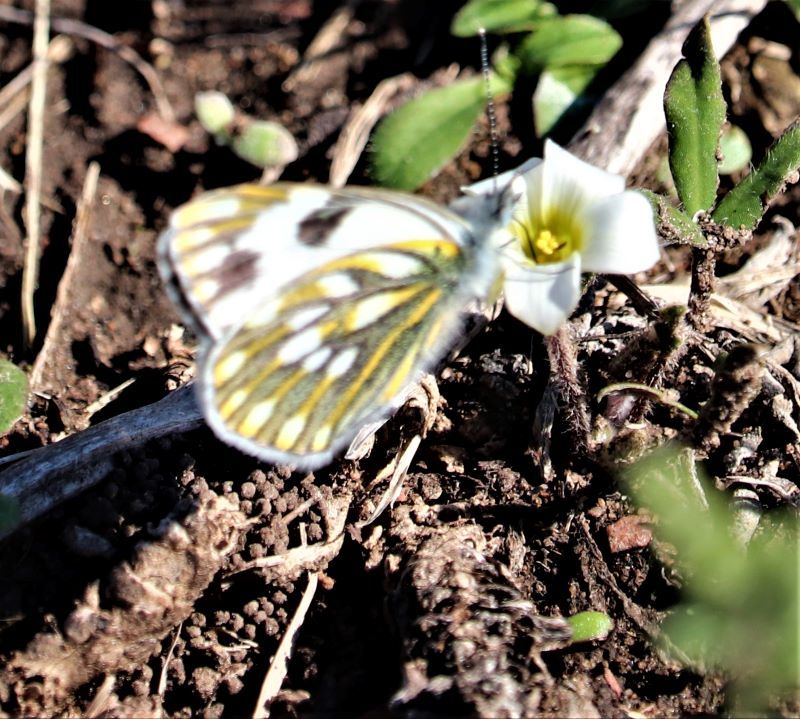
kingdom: Animalia
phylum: Arthropoda
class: Insecta
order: Lepidoptera
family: Pieridae
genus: Pontia
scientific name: Pontia helice
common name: Meadow white
